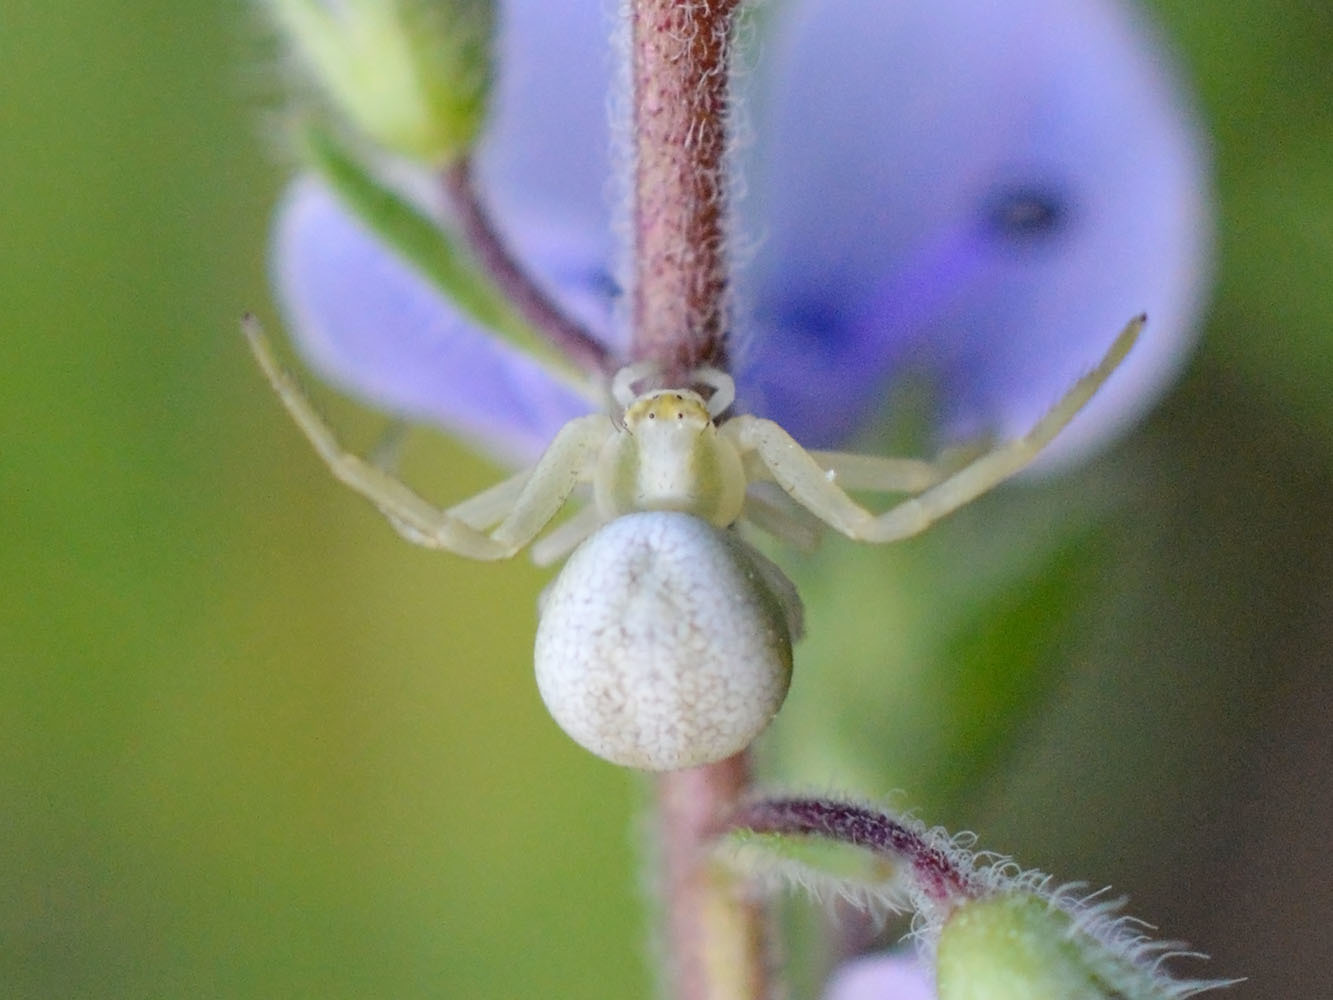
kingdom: Animalia
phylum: Arthropoda
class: Arachnida
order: Araneae
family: Thomisidae
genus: Misumena
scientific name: Misumena vatia
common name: Goldenrod crab spider
